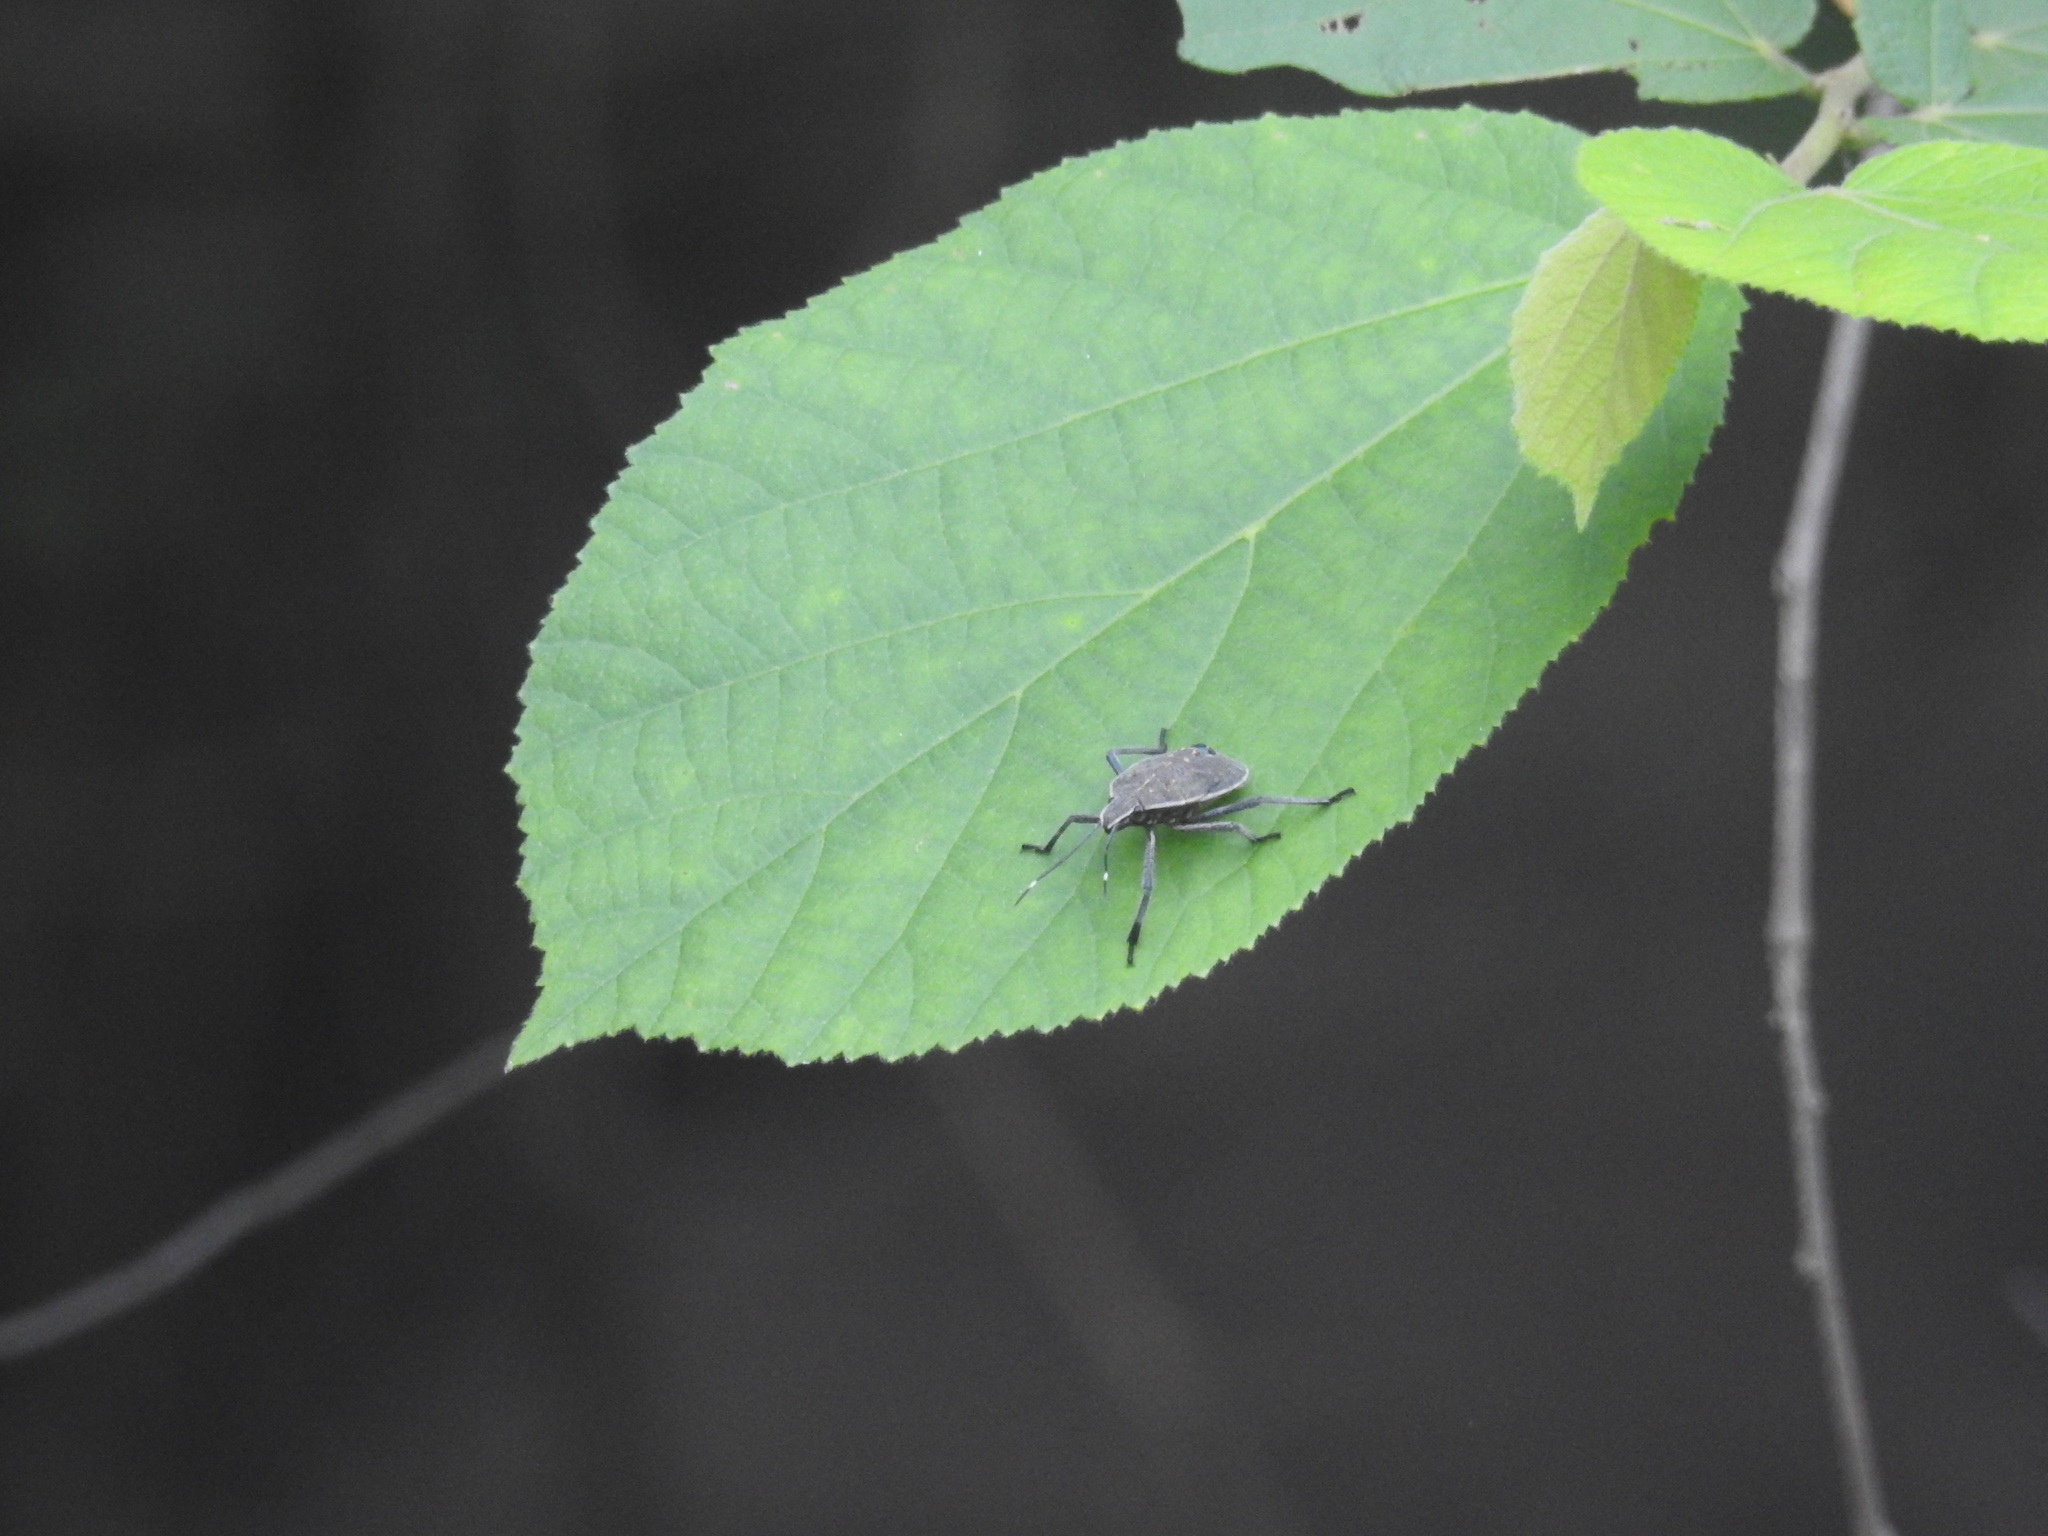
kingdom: Animalia
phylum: Arthropoda
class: Insecta
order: Hemiptera
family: Pentatomidae
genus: Erthesina
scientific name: Erthesina acuminata
